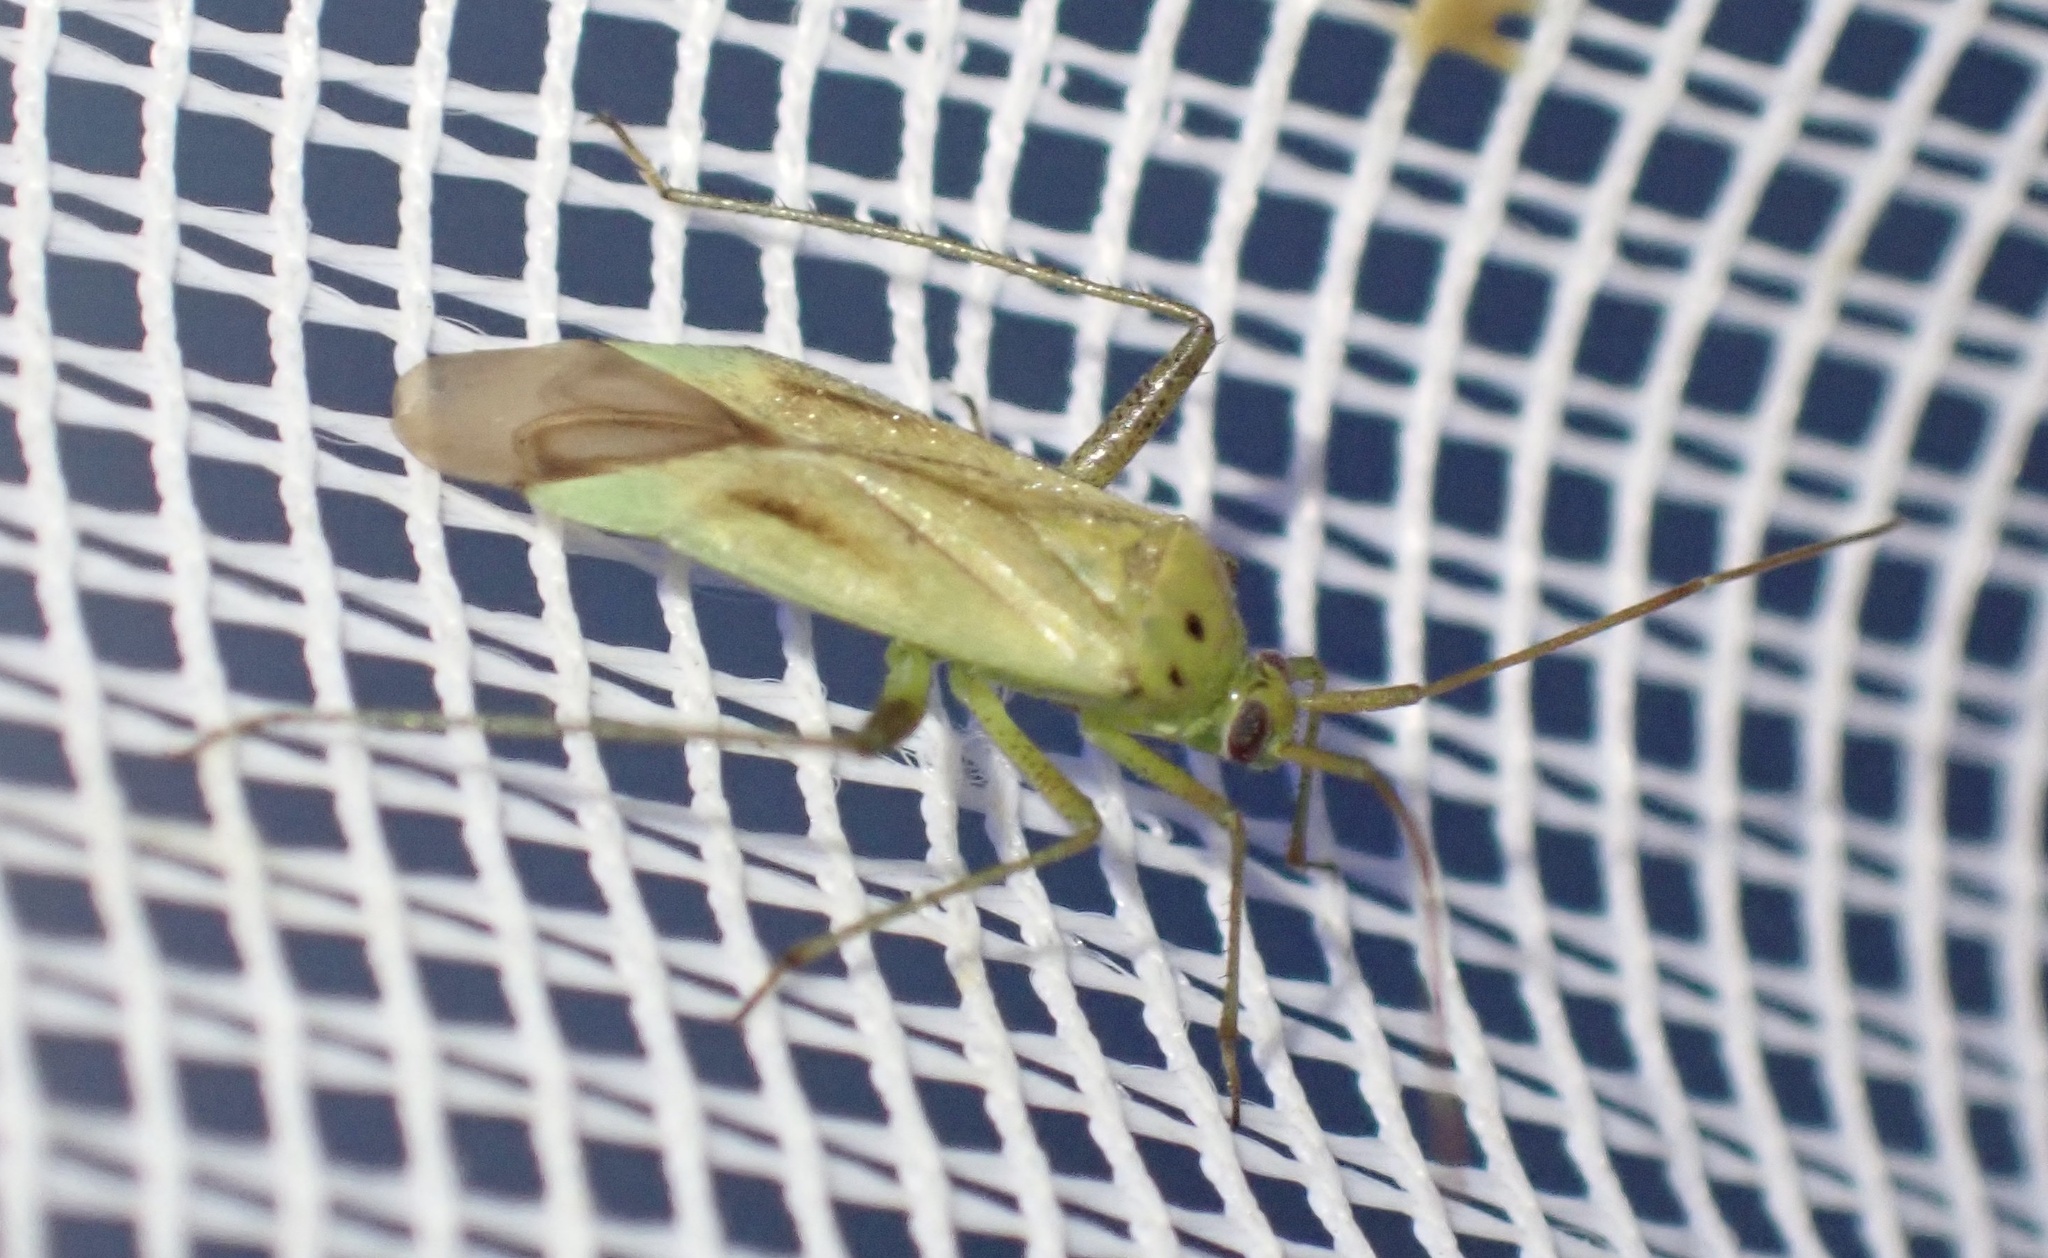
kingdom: Animalia
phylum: Arthropoda
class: Insecta
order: Hemiptera
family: Miridae
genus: Adelphocoris
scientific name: Adelphocoris quadripunctatus
